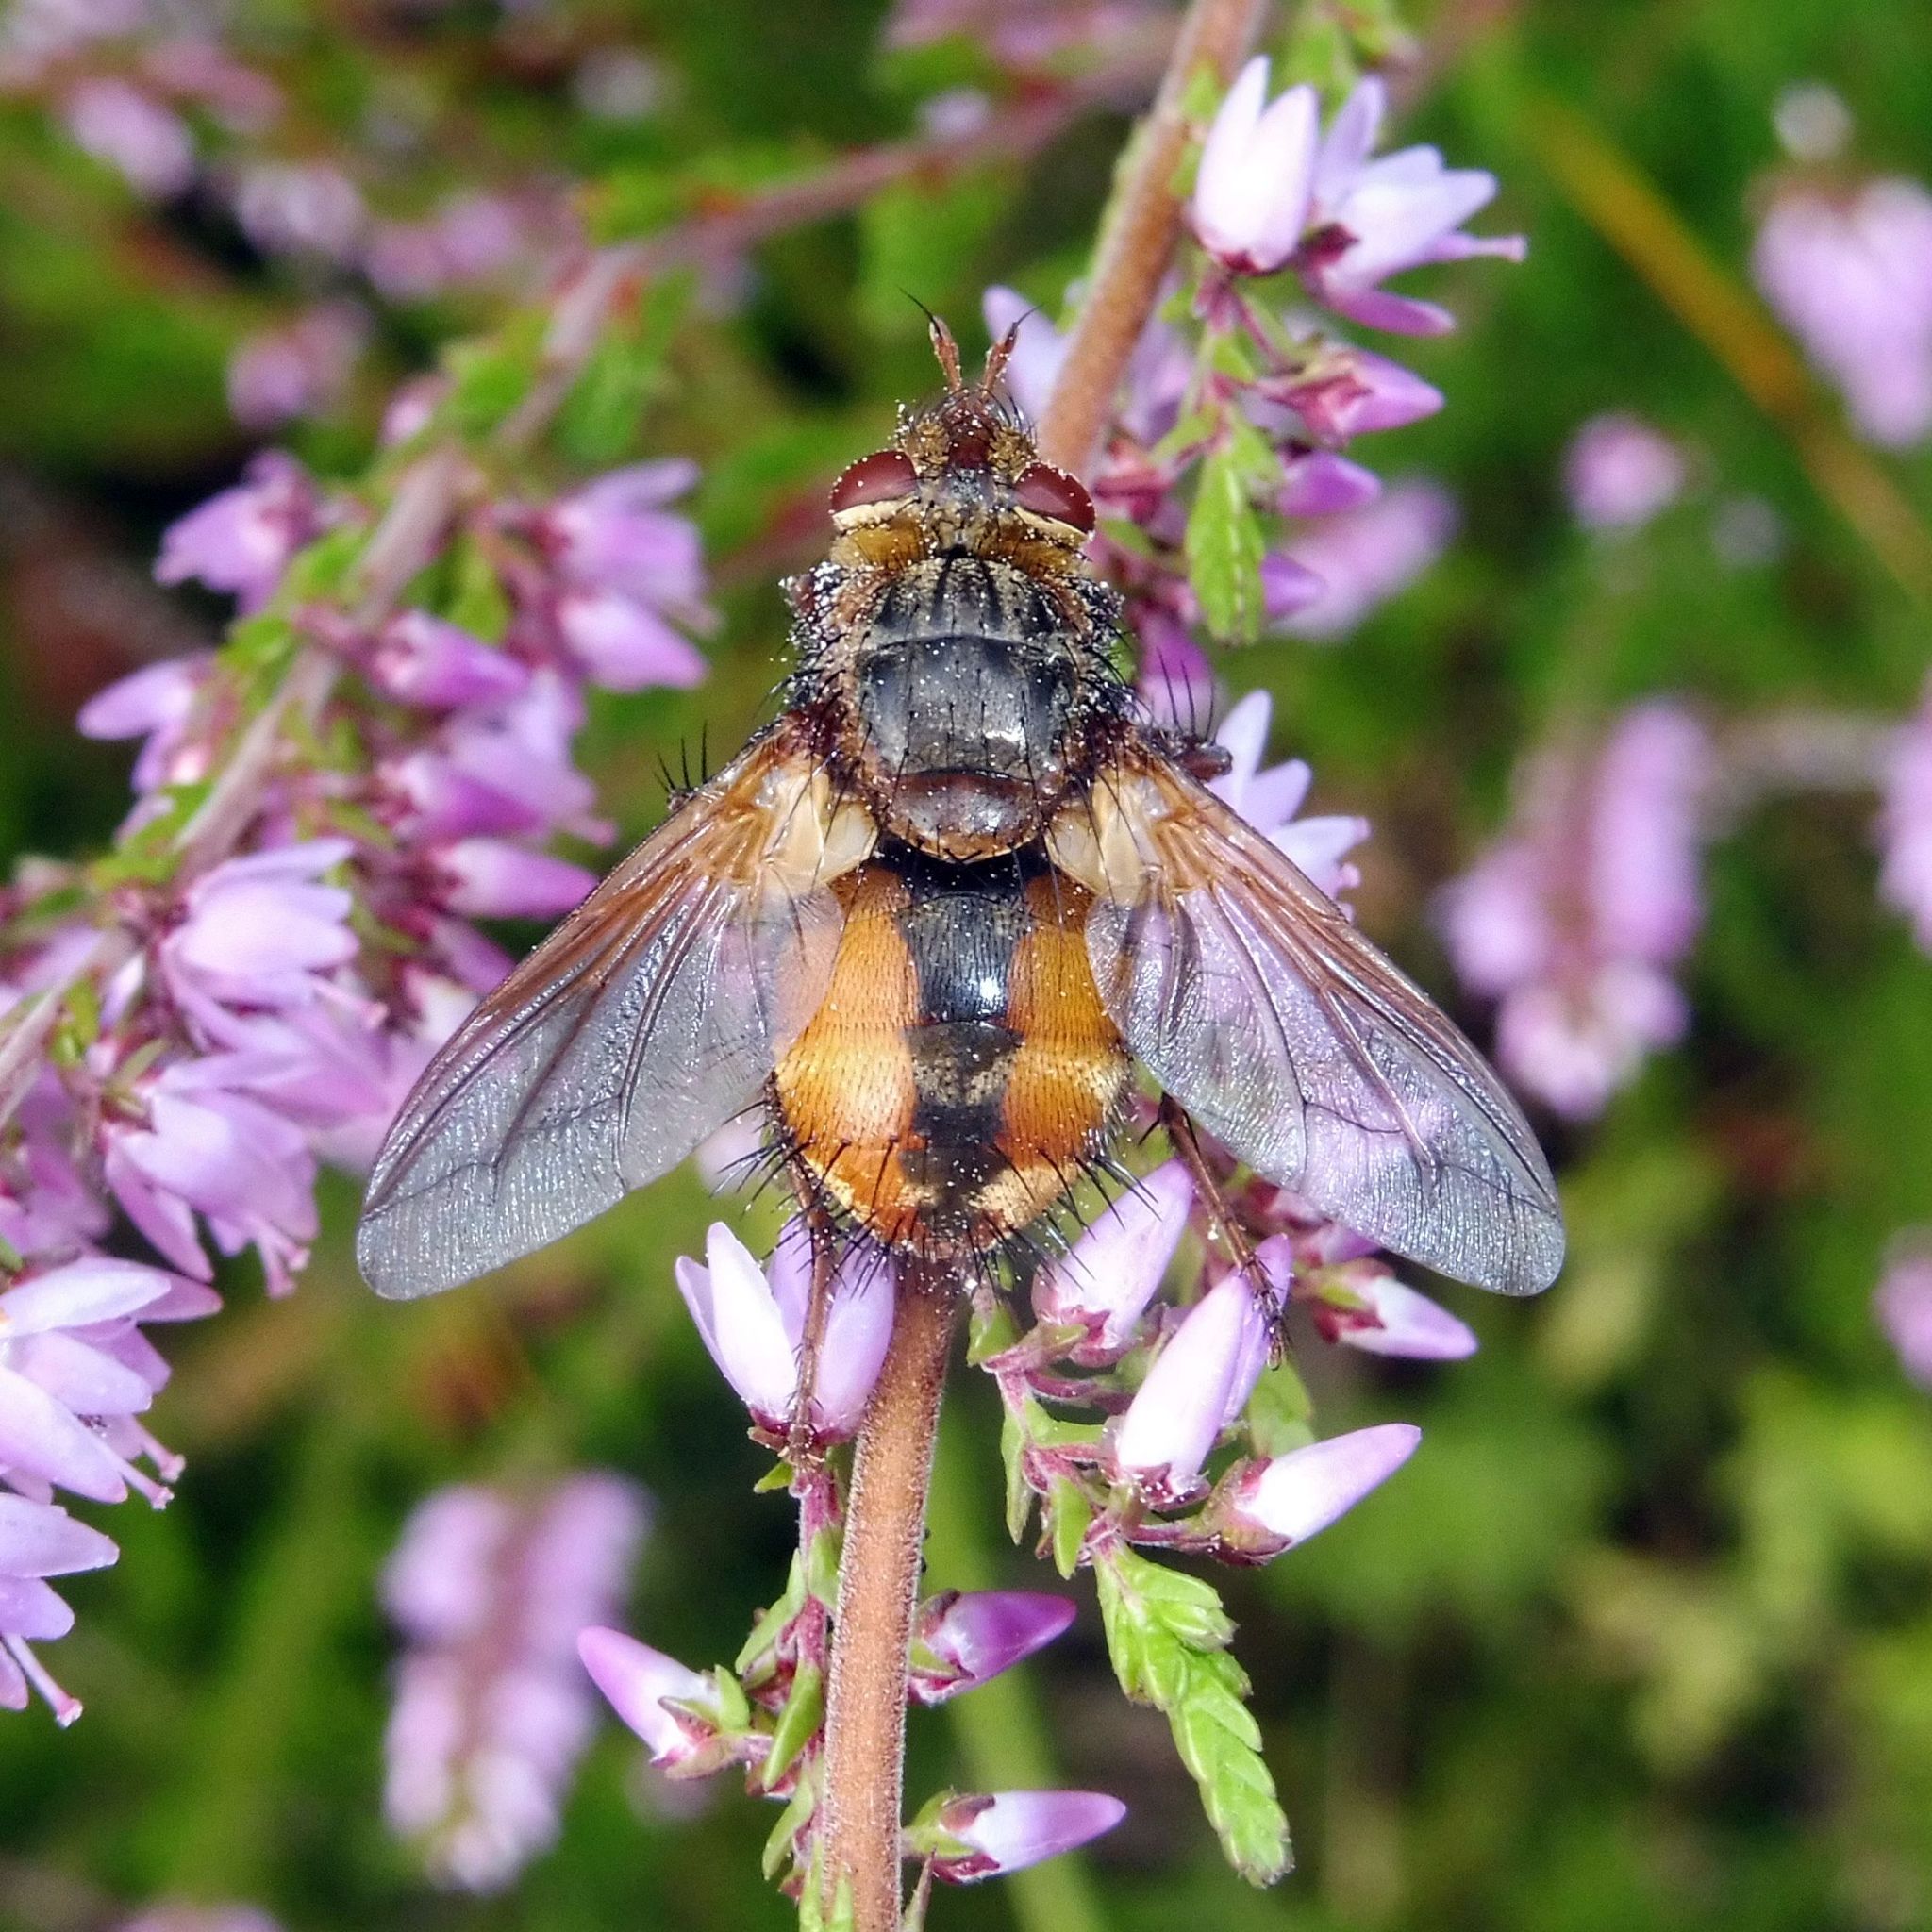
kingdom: Animalia
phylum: Arthropoda
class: Insecta
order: Diptera
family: Tachinidae
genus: Tachina
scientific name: Tachina fera
